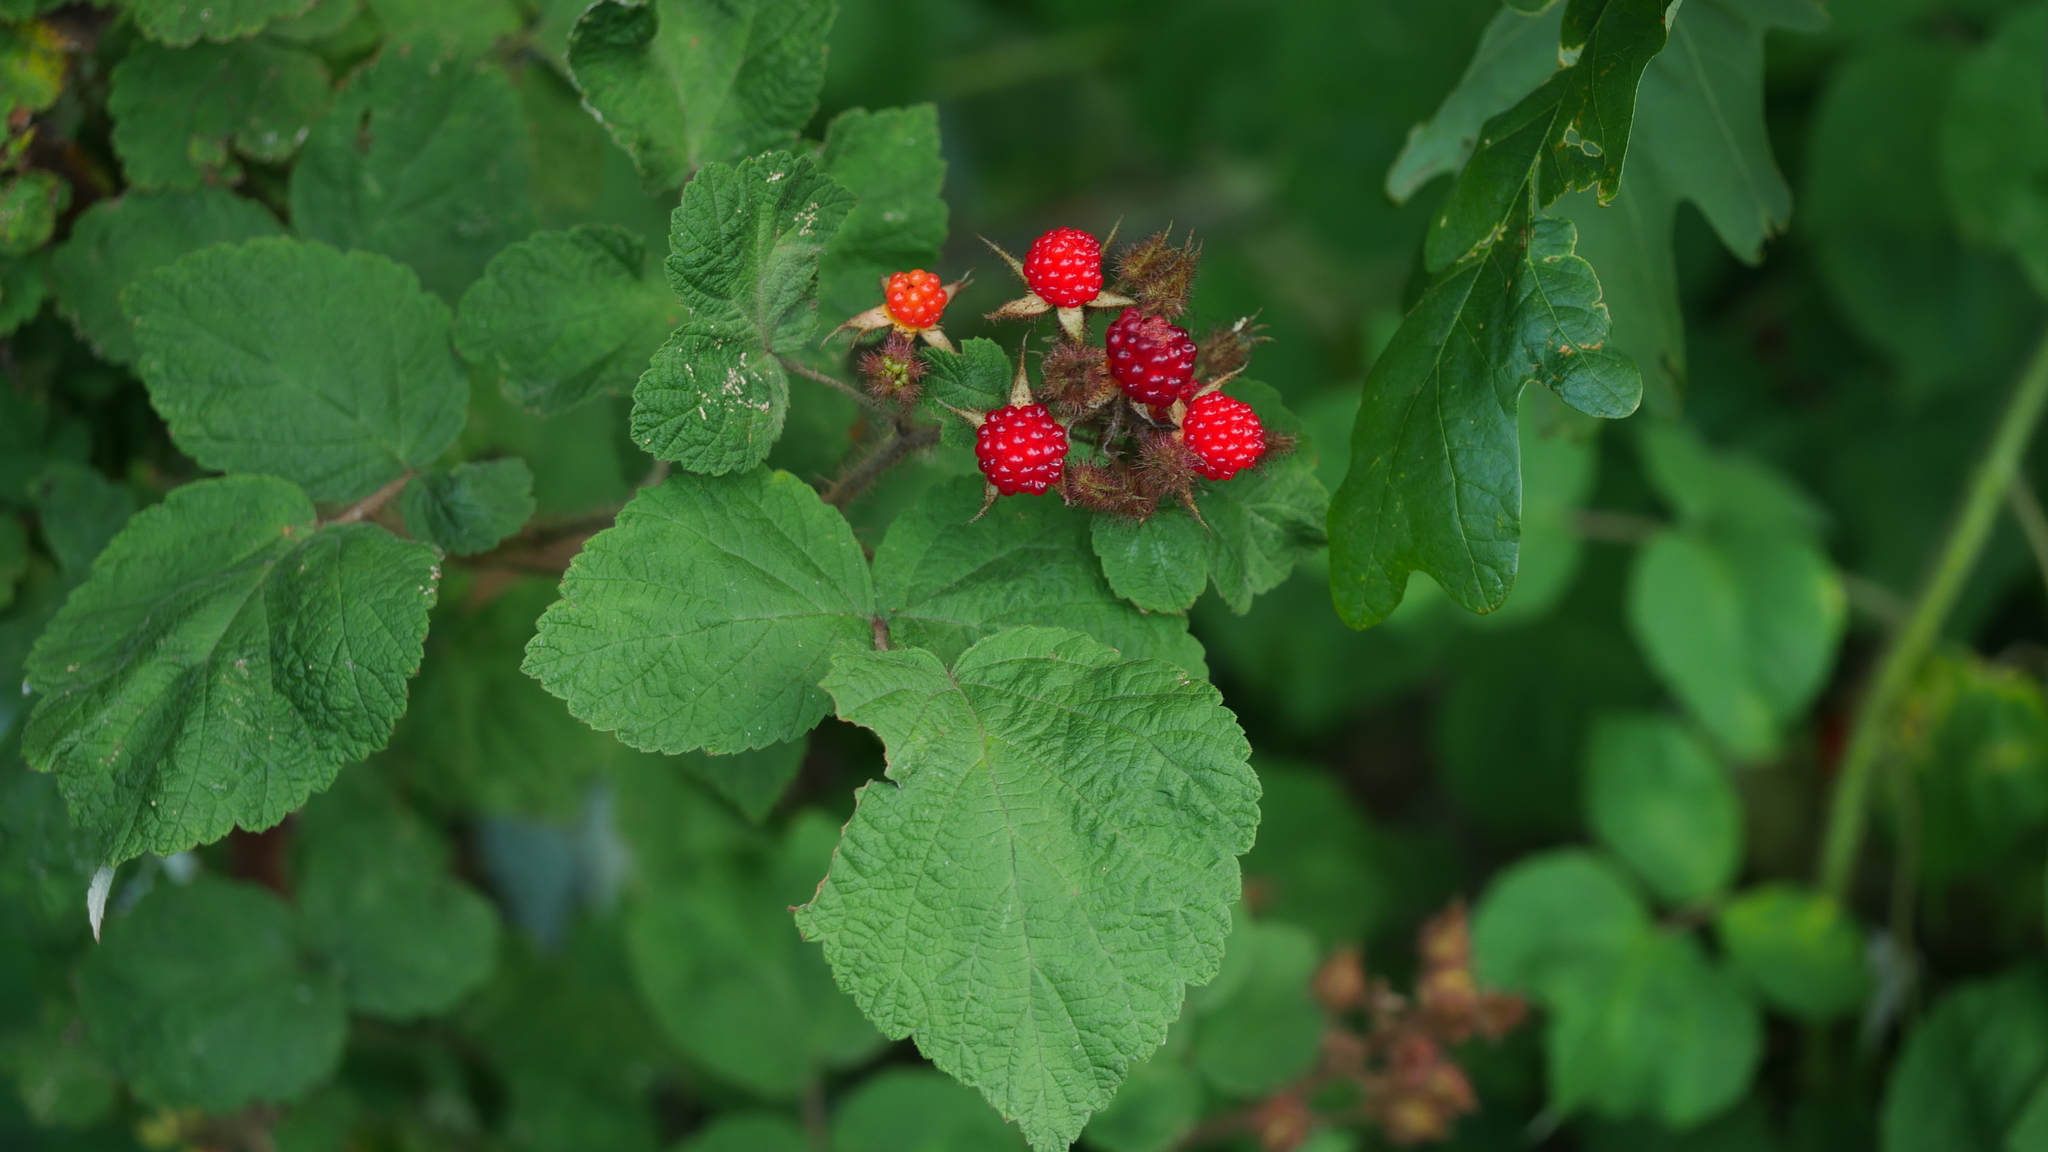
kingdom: Plantae
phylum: Tracheophyta
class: Magnoliopsida
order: Rosales
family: Rosaceae
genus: Rubus
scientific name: Rubus phoenicolasius
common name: Japanese wineberry
